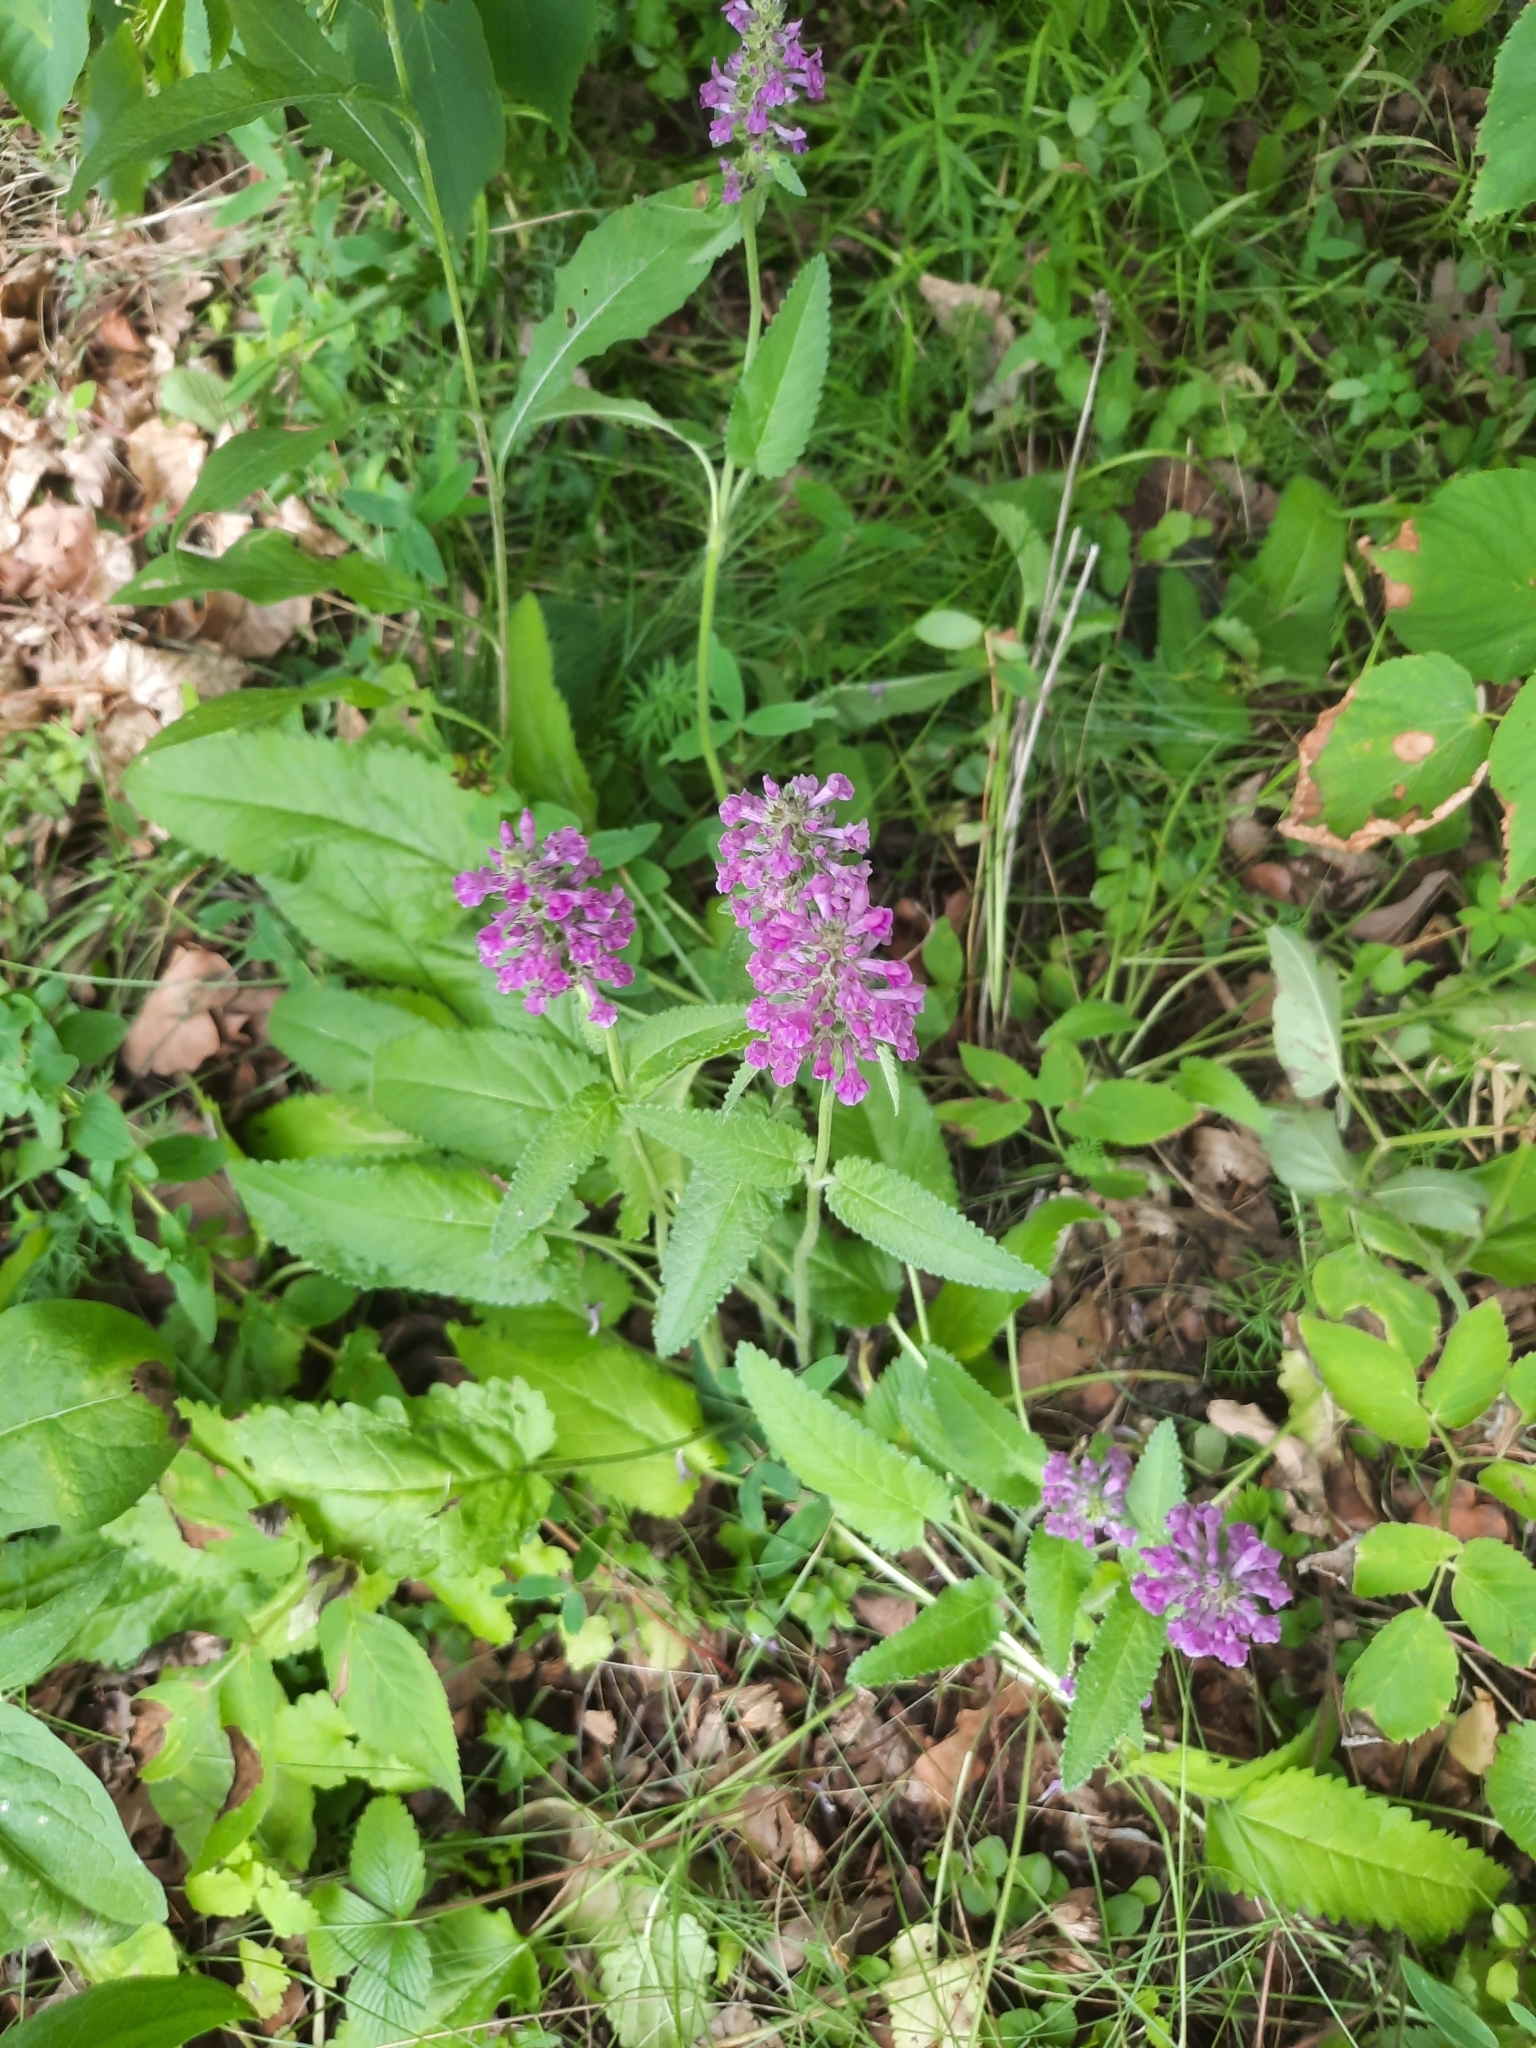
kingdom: Plantae
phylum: Tracheophyta
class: Magnoliopsida
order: Lamiales
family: Lamiaceae
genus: Betonica
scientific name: Betonica officinalis
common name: Bishop's-wort
